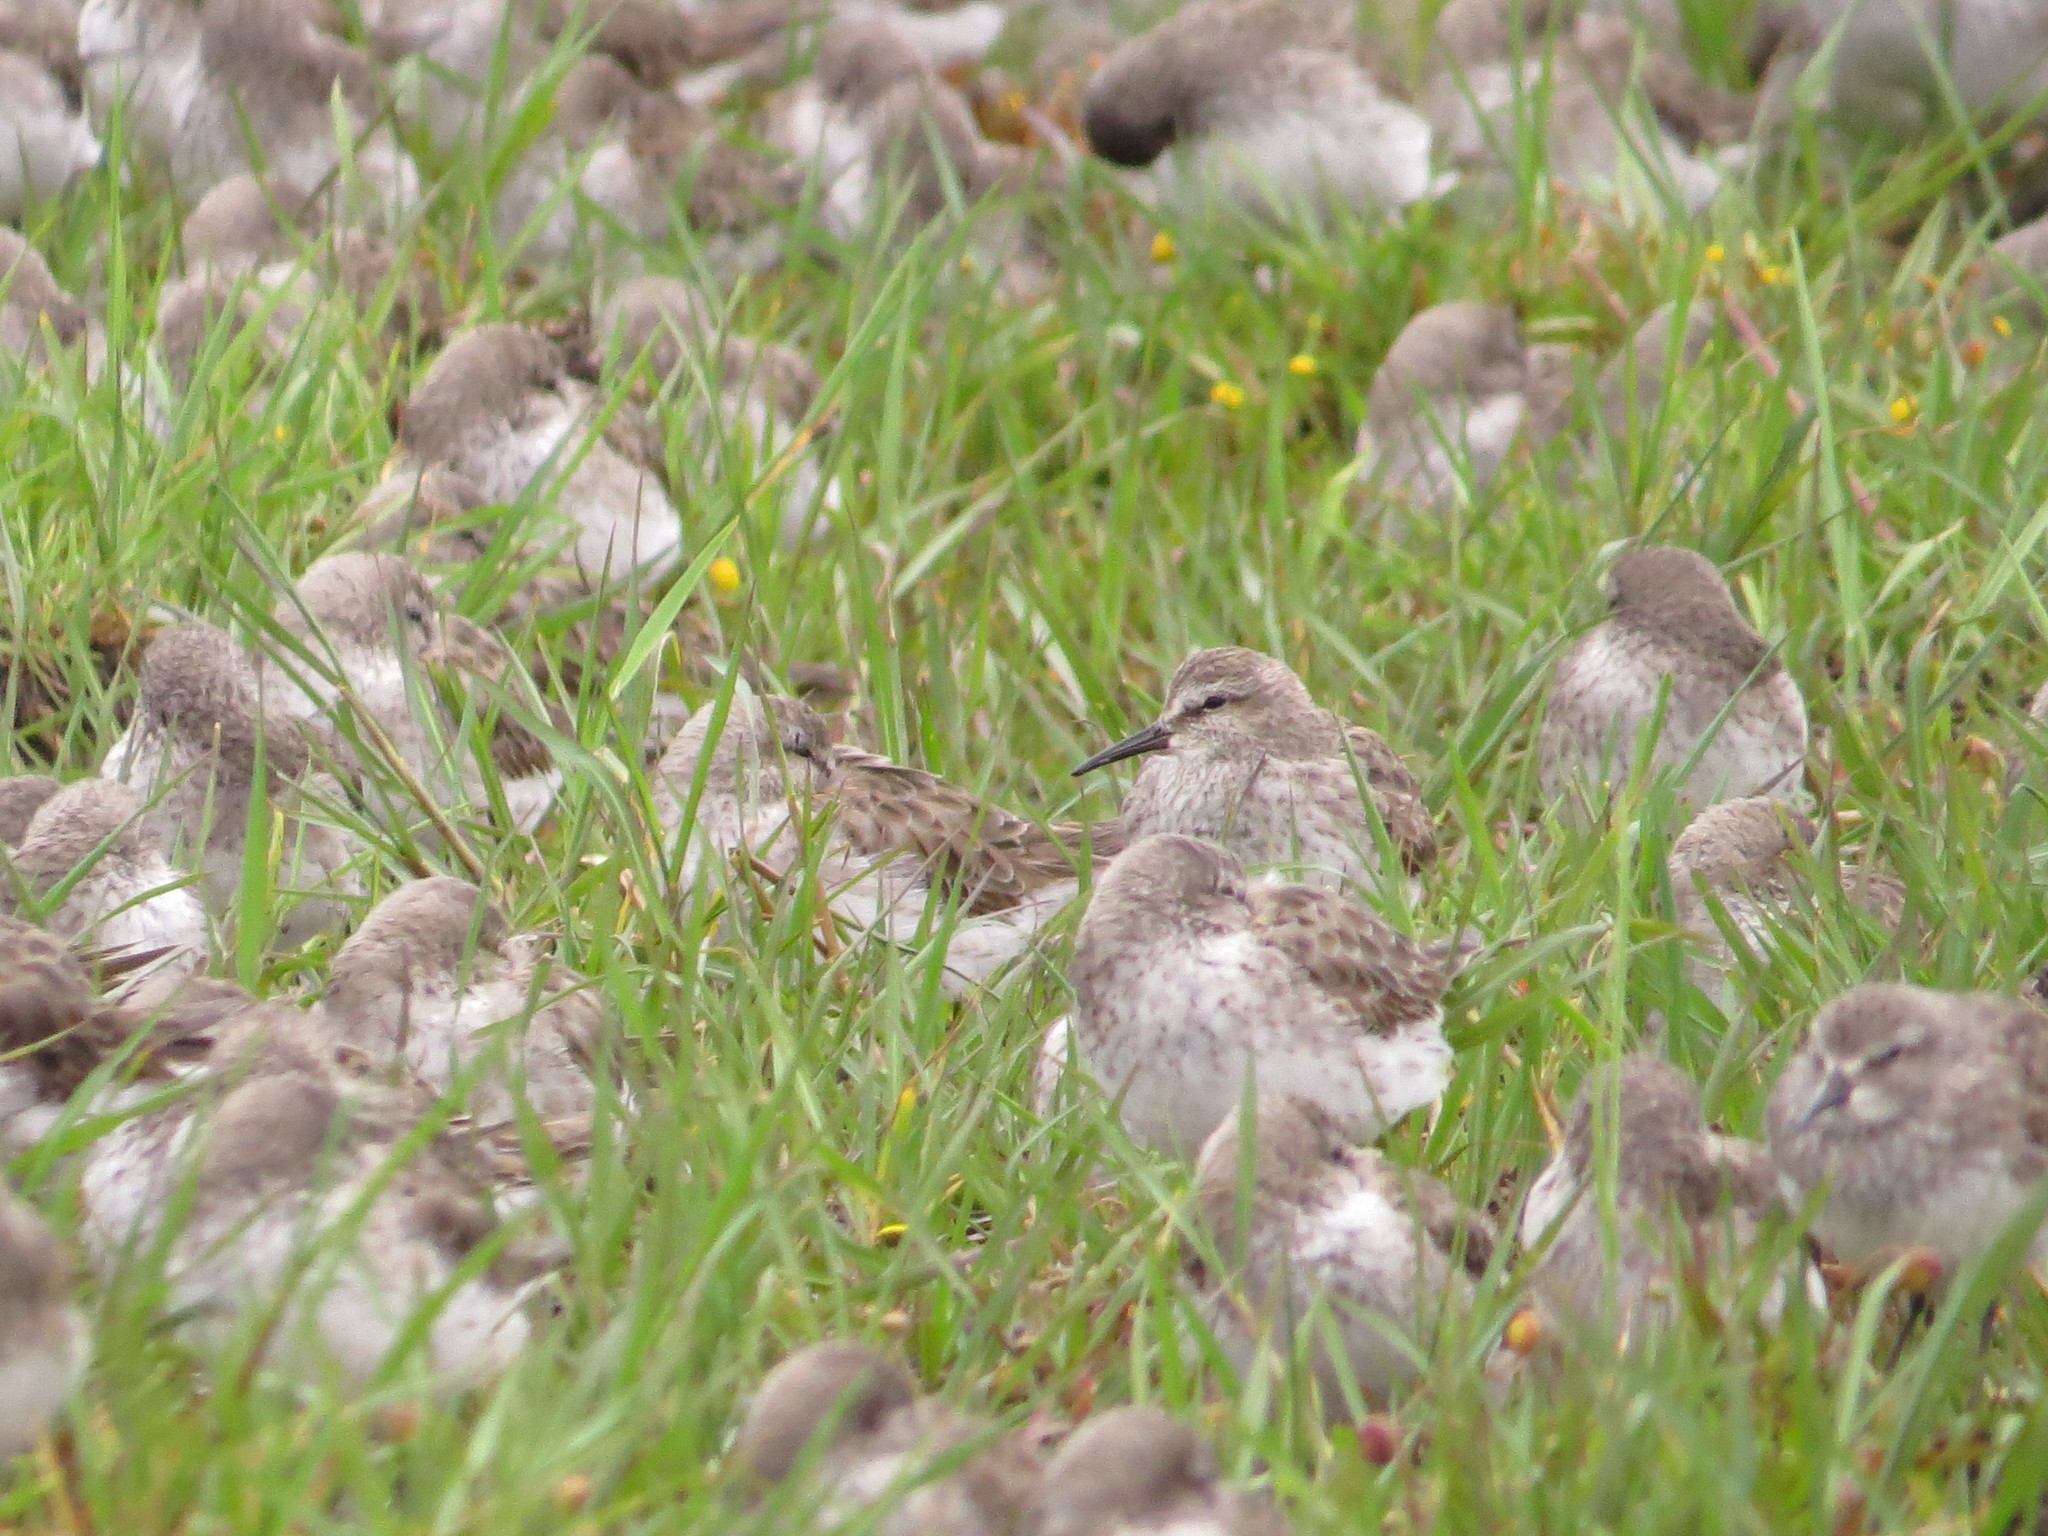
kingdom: Animalia
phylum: Chordata
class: Aves
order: Charadriiformes
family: Scolopacidae
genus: Calidris
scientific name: Calidris fuscicollis
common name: White-rumped sandpiper
